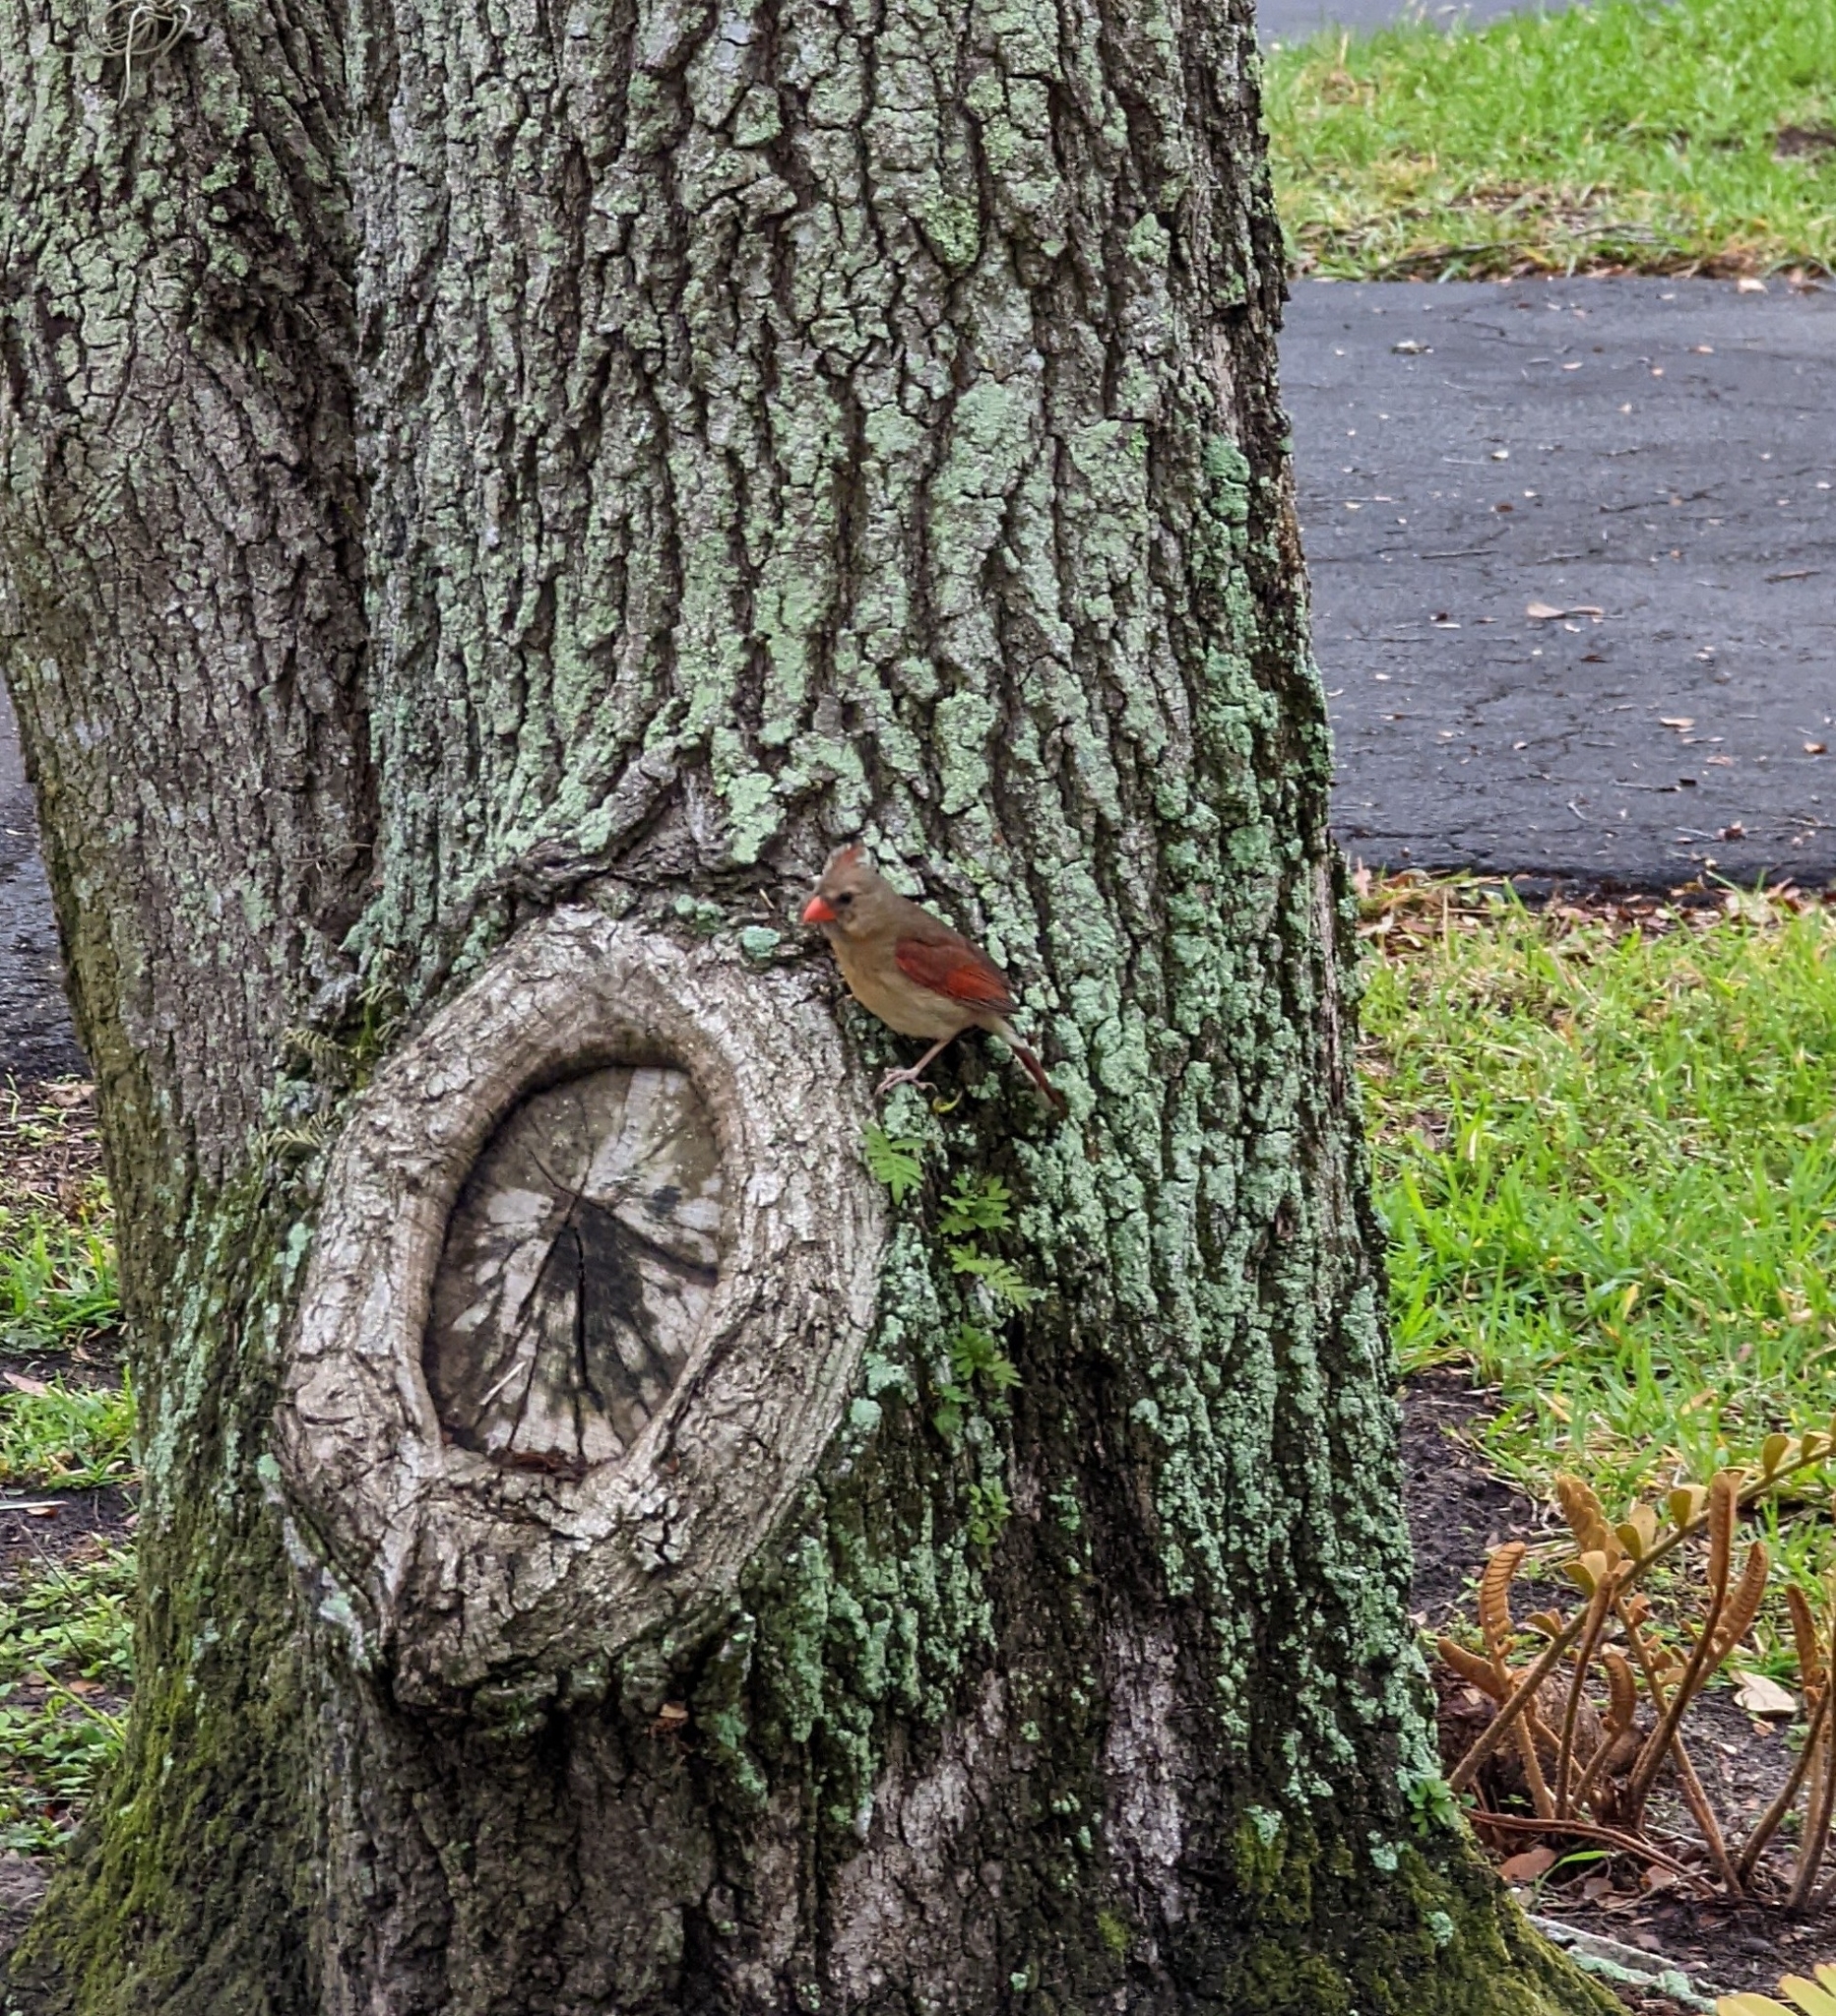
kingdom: Animalia
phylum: Chordata
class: Aves
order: Passeriformes
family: Cardinalidae
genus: Cardinalis
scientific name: Cardinalis cardinalis
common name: Northern cardinal
